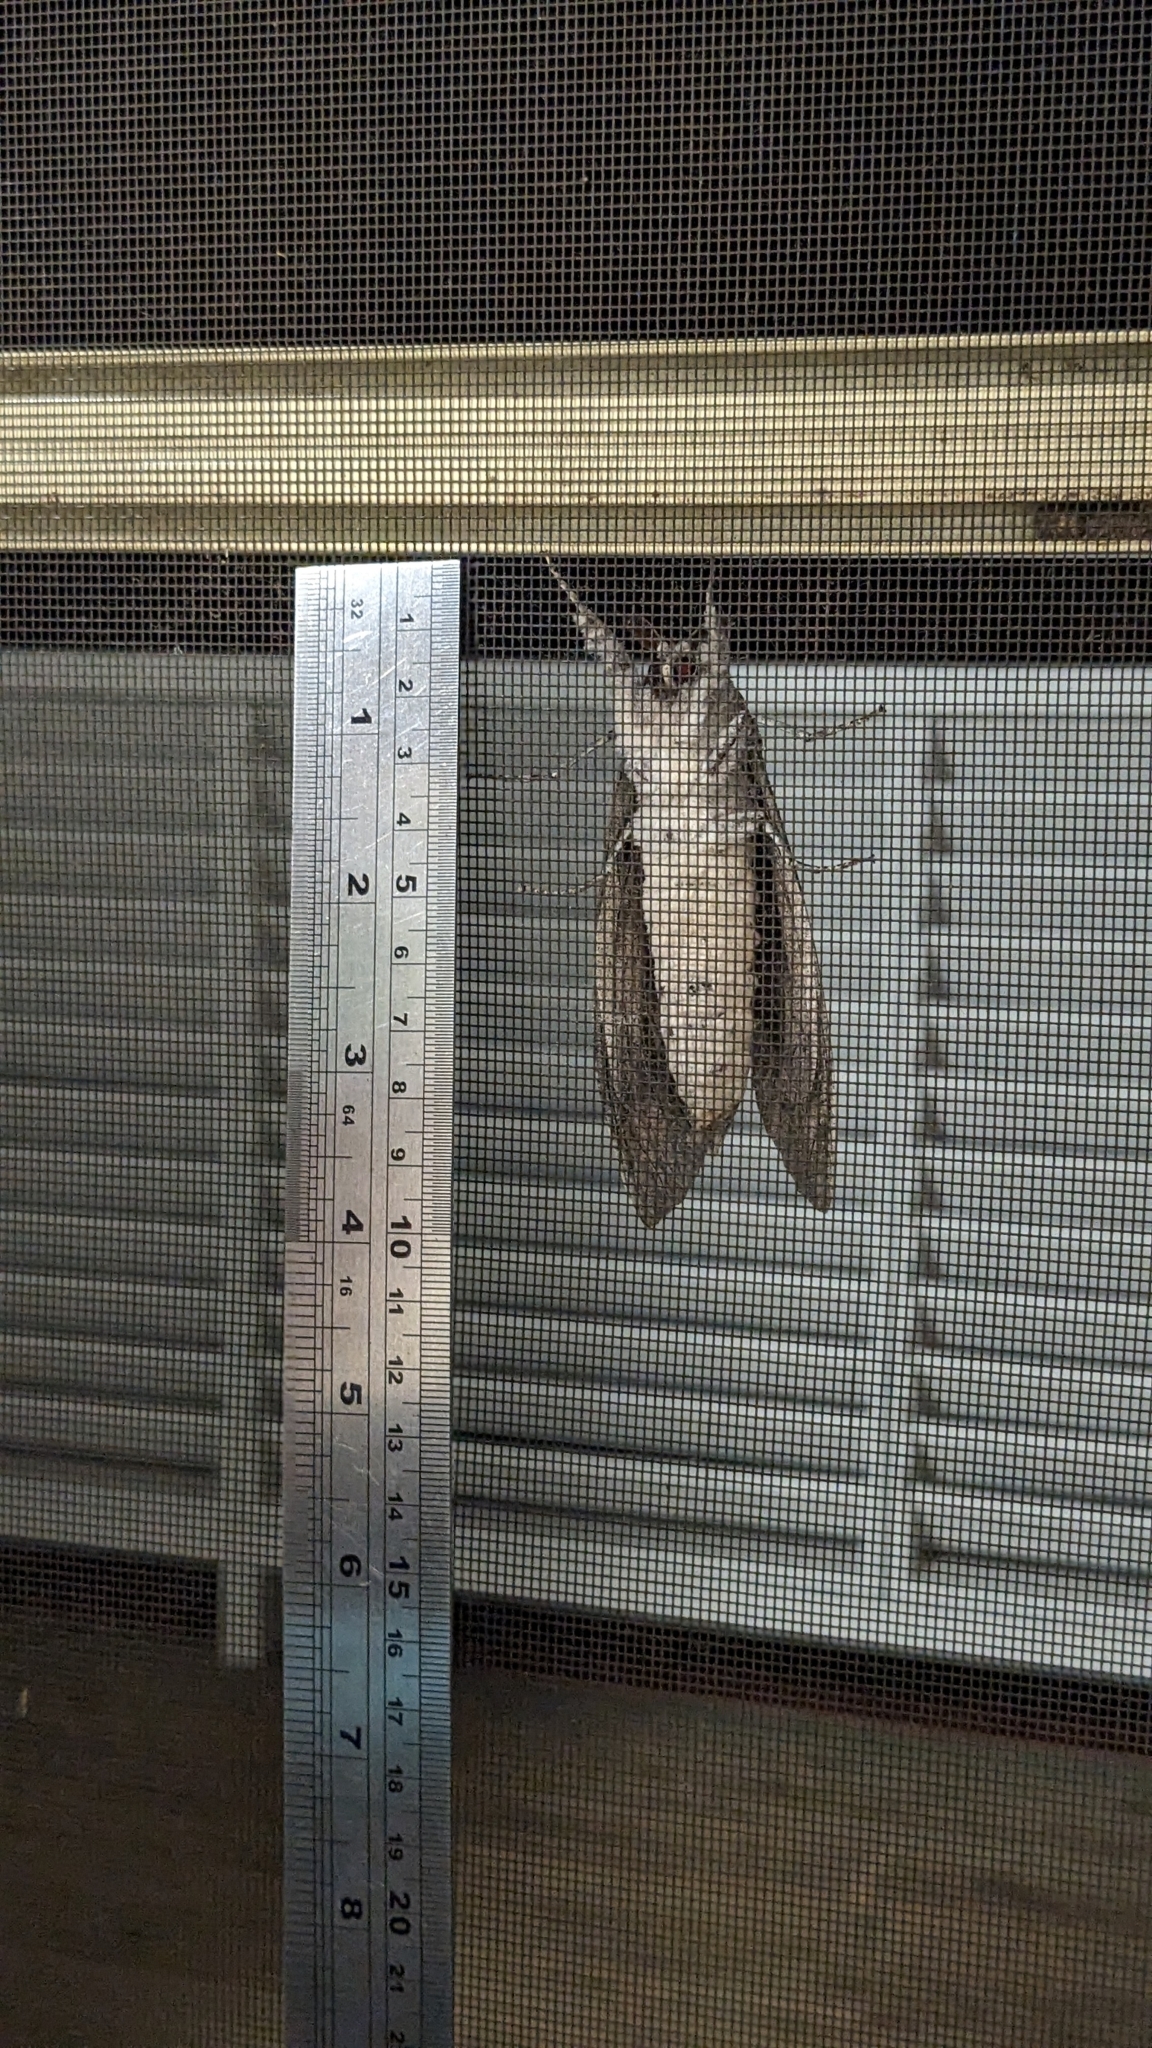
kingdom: Animalia
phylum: Arthropoda
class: Insecta
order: Lepidoptera
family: Cossidae
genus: Endoxyla
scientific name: Endoxyla cinereus
